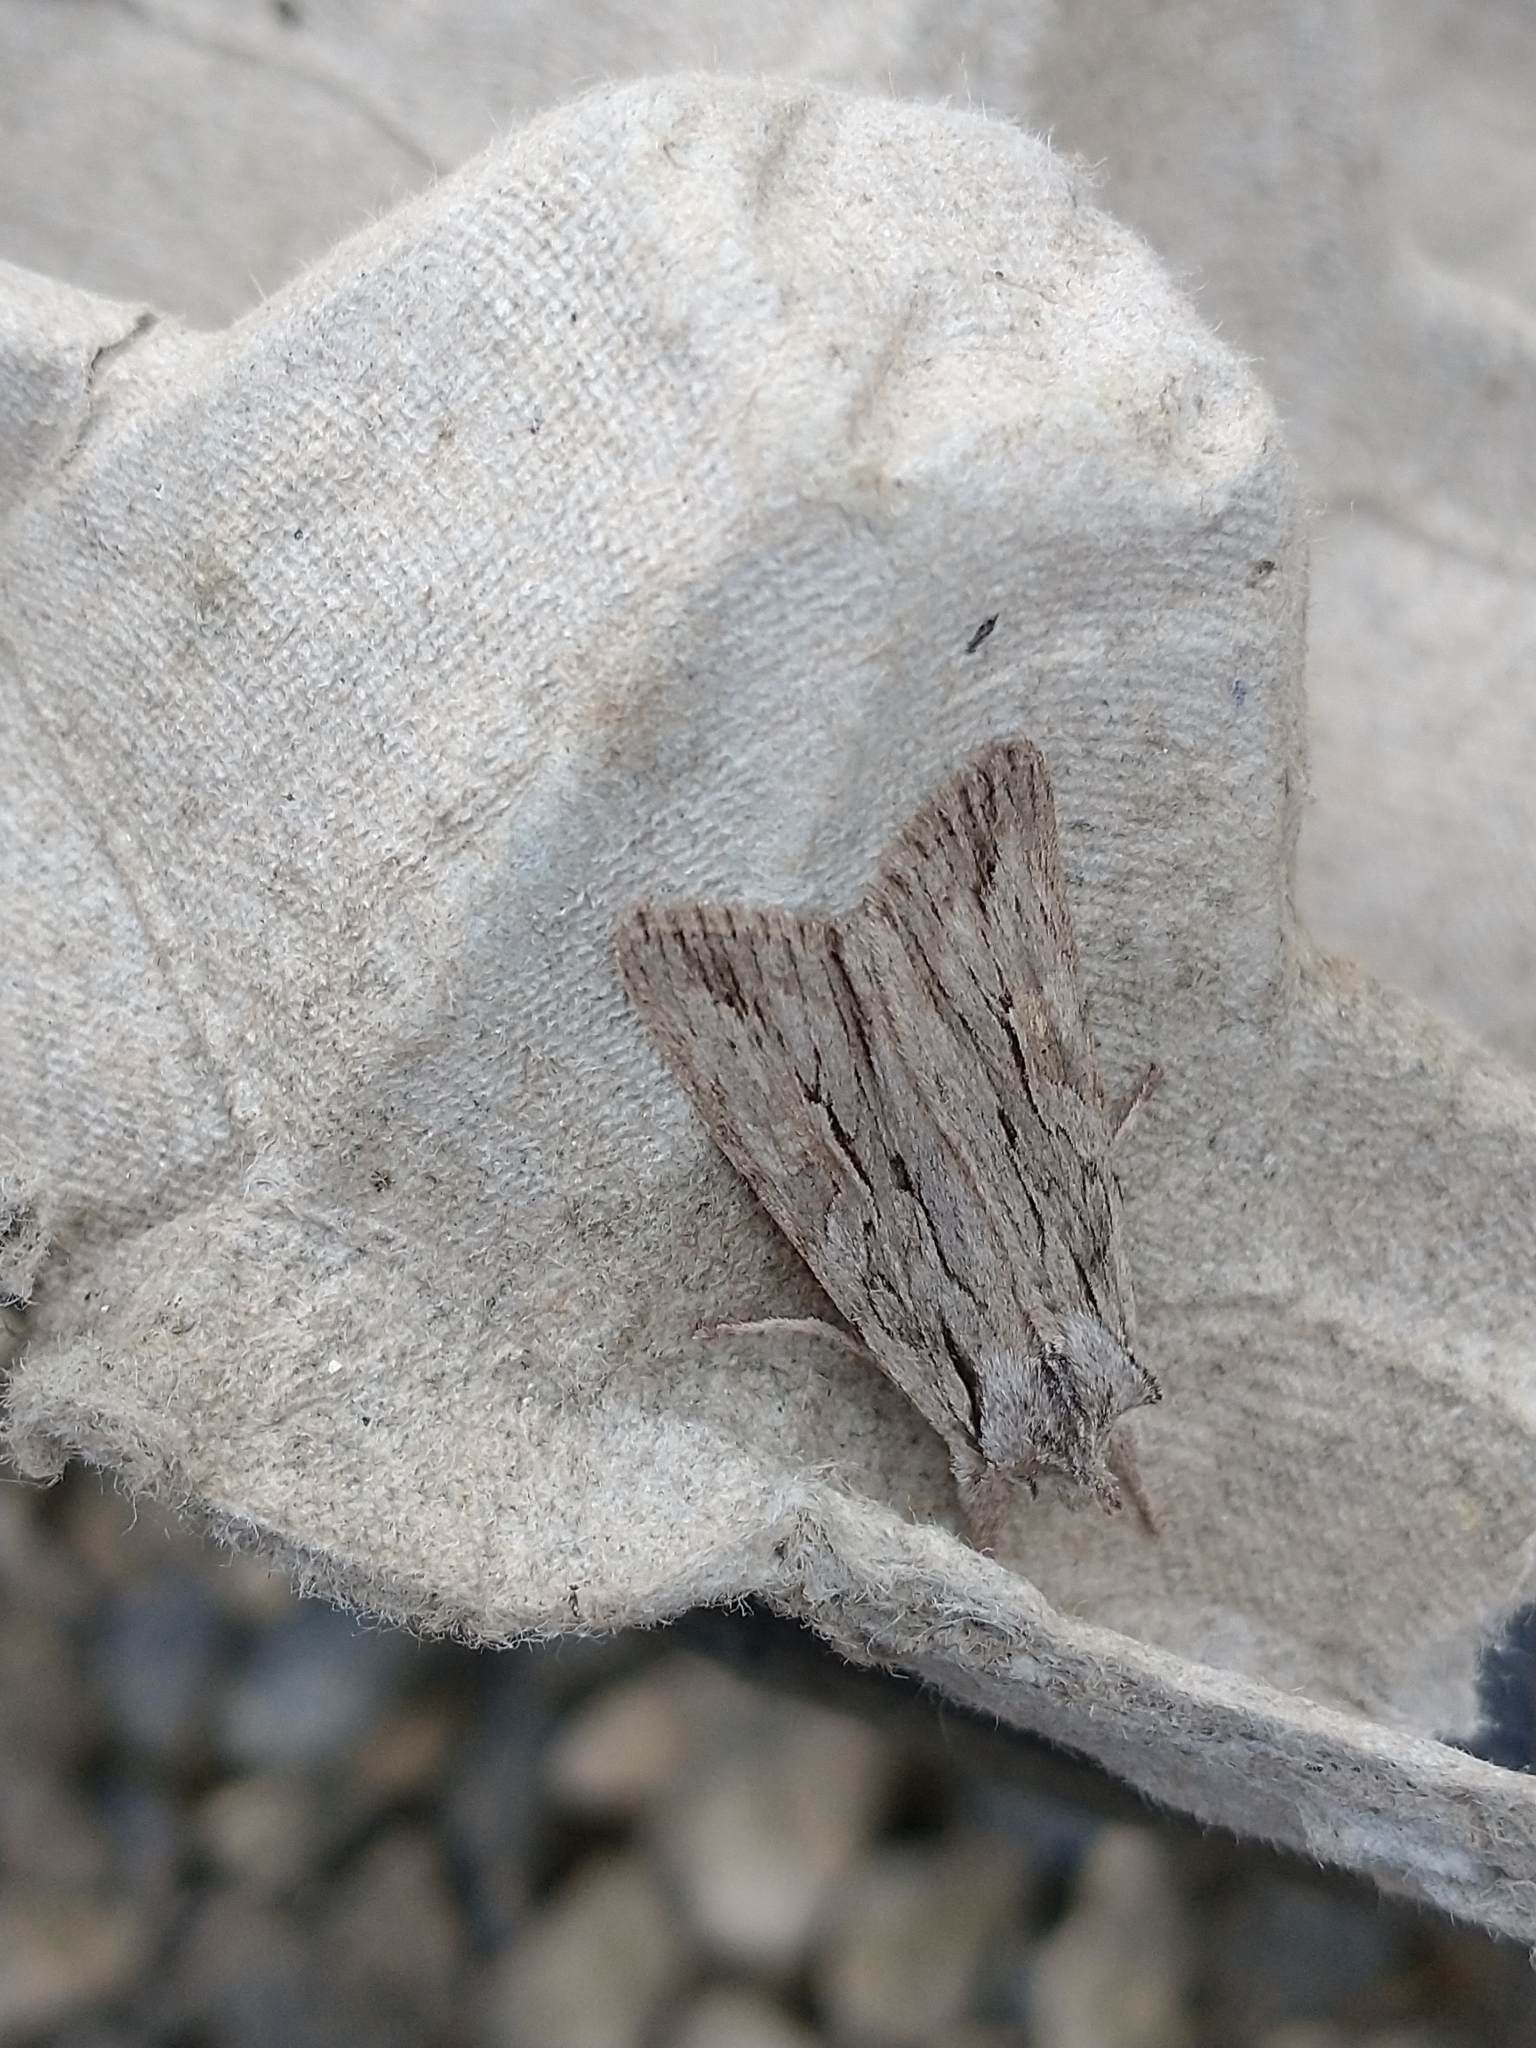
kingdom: Animalia
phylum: Arthropoda
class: Insecta
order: Lepidoptera
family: Noctuidae
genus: Lithophane
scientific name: Lithophane leautieri
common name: Blair's shoulder-knot
